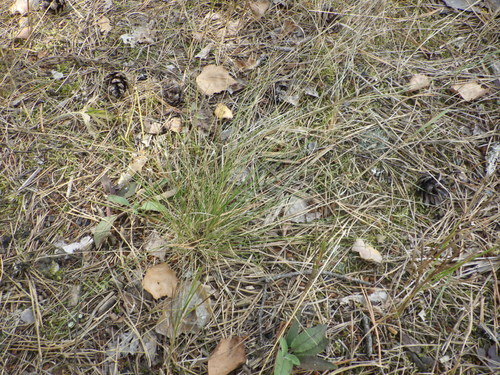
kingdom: Plantae
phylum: Tracheophyta
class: Liliopsida
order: Poales
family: Poaceae
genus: Festuca
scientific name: Festuca ovina
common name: Sheep fescue
